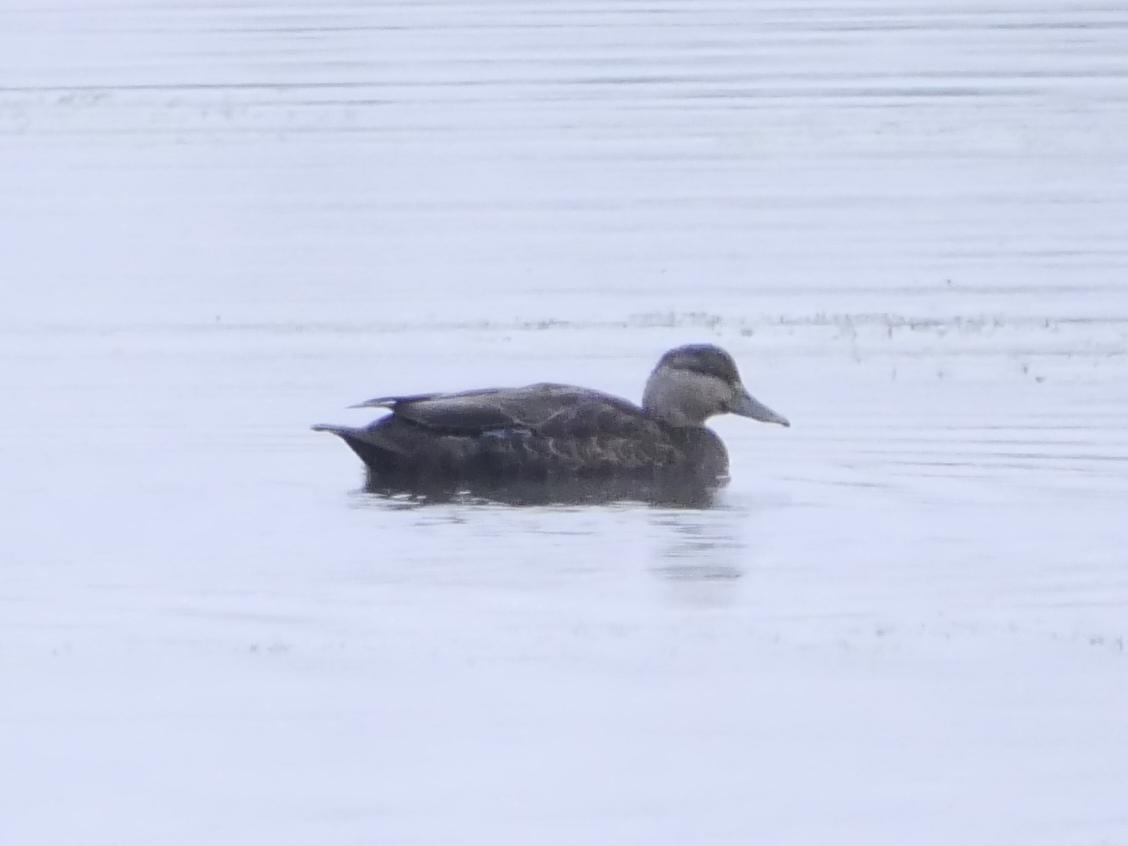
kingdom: Animalia
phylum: Chordata
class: Aves
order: Anseriformes
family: Anatidae
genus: Anas
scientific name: Anas rubripes
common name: American black duck
